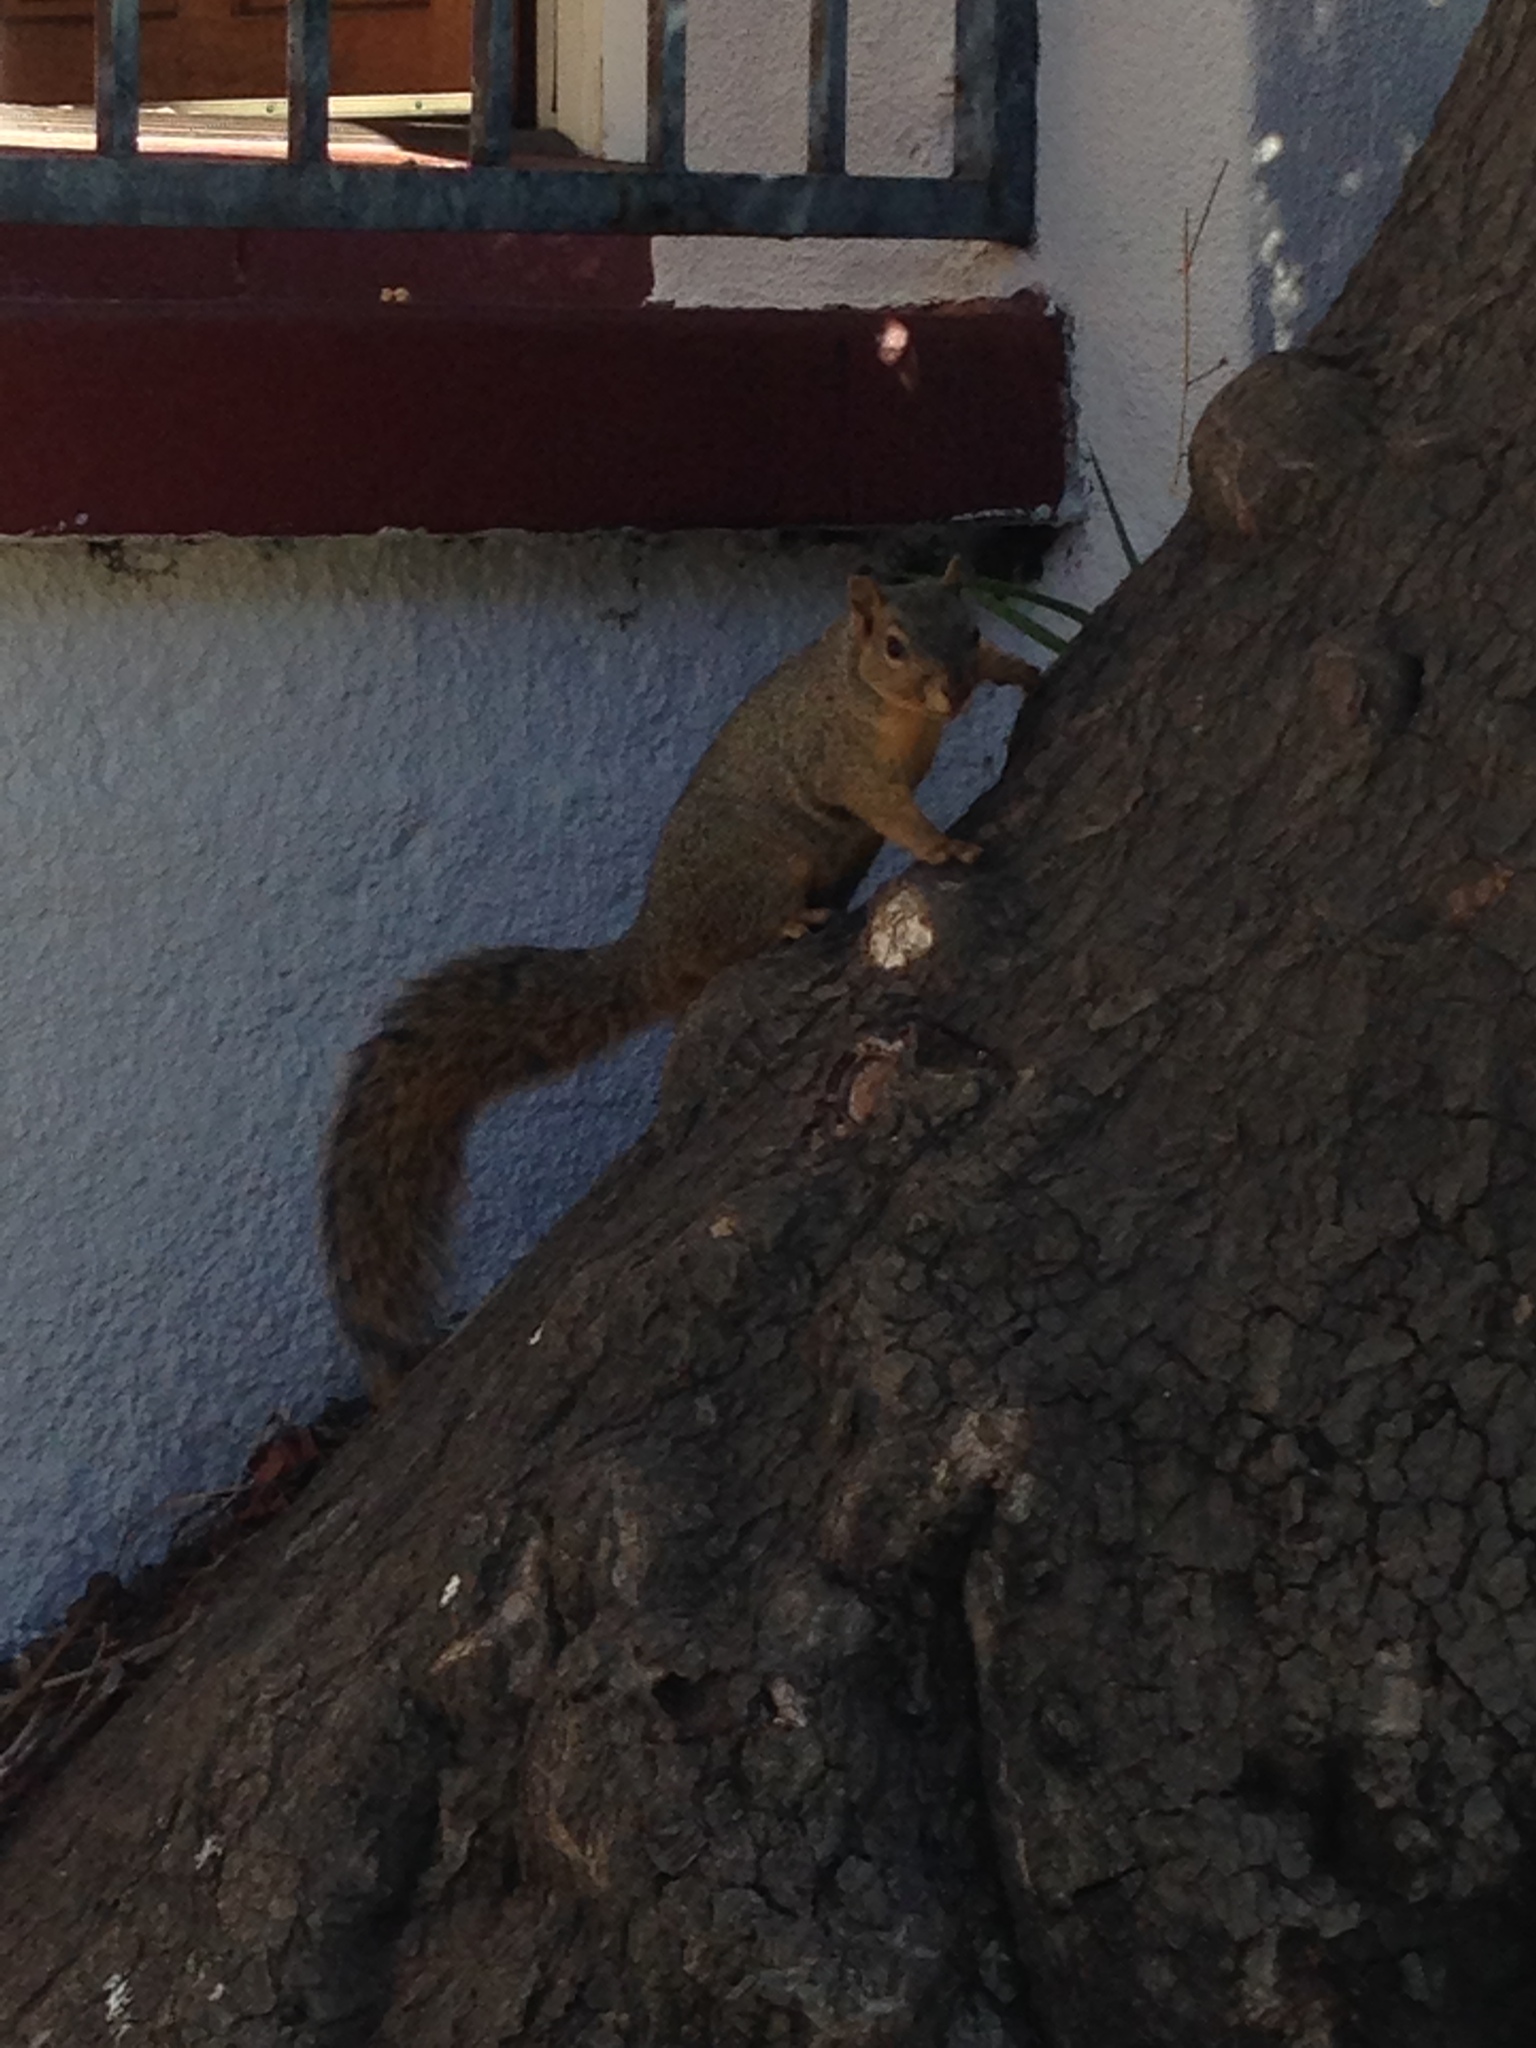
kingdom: Animalia
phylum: Chordata
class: Mammalia
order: Rodentia
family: Sciuridae
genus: Sciurus
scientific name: Sciurus niger
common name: Fox squirrel
